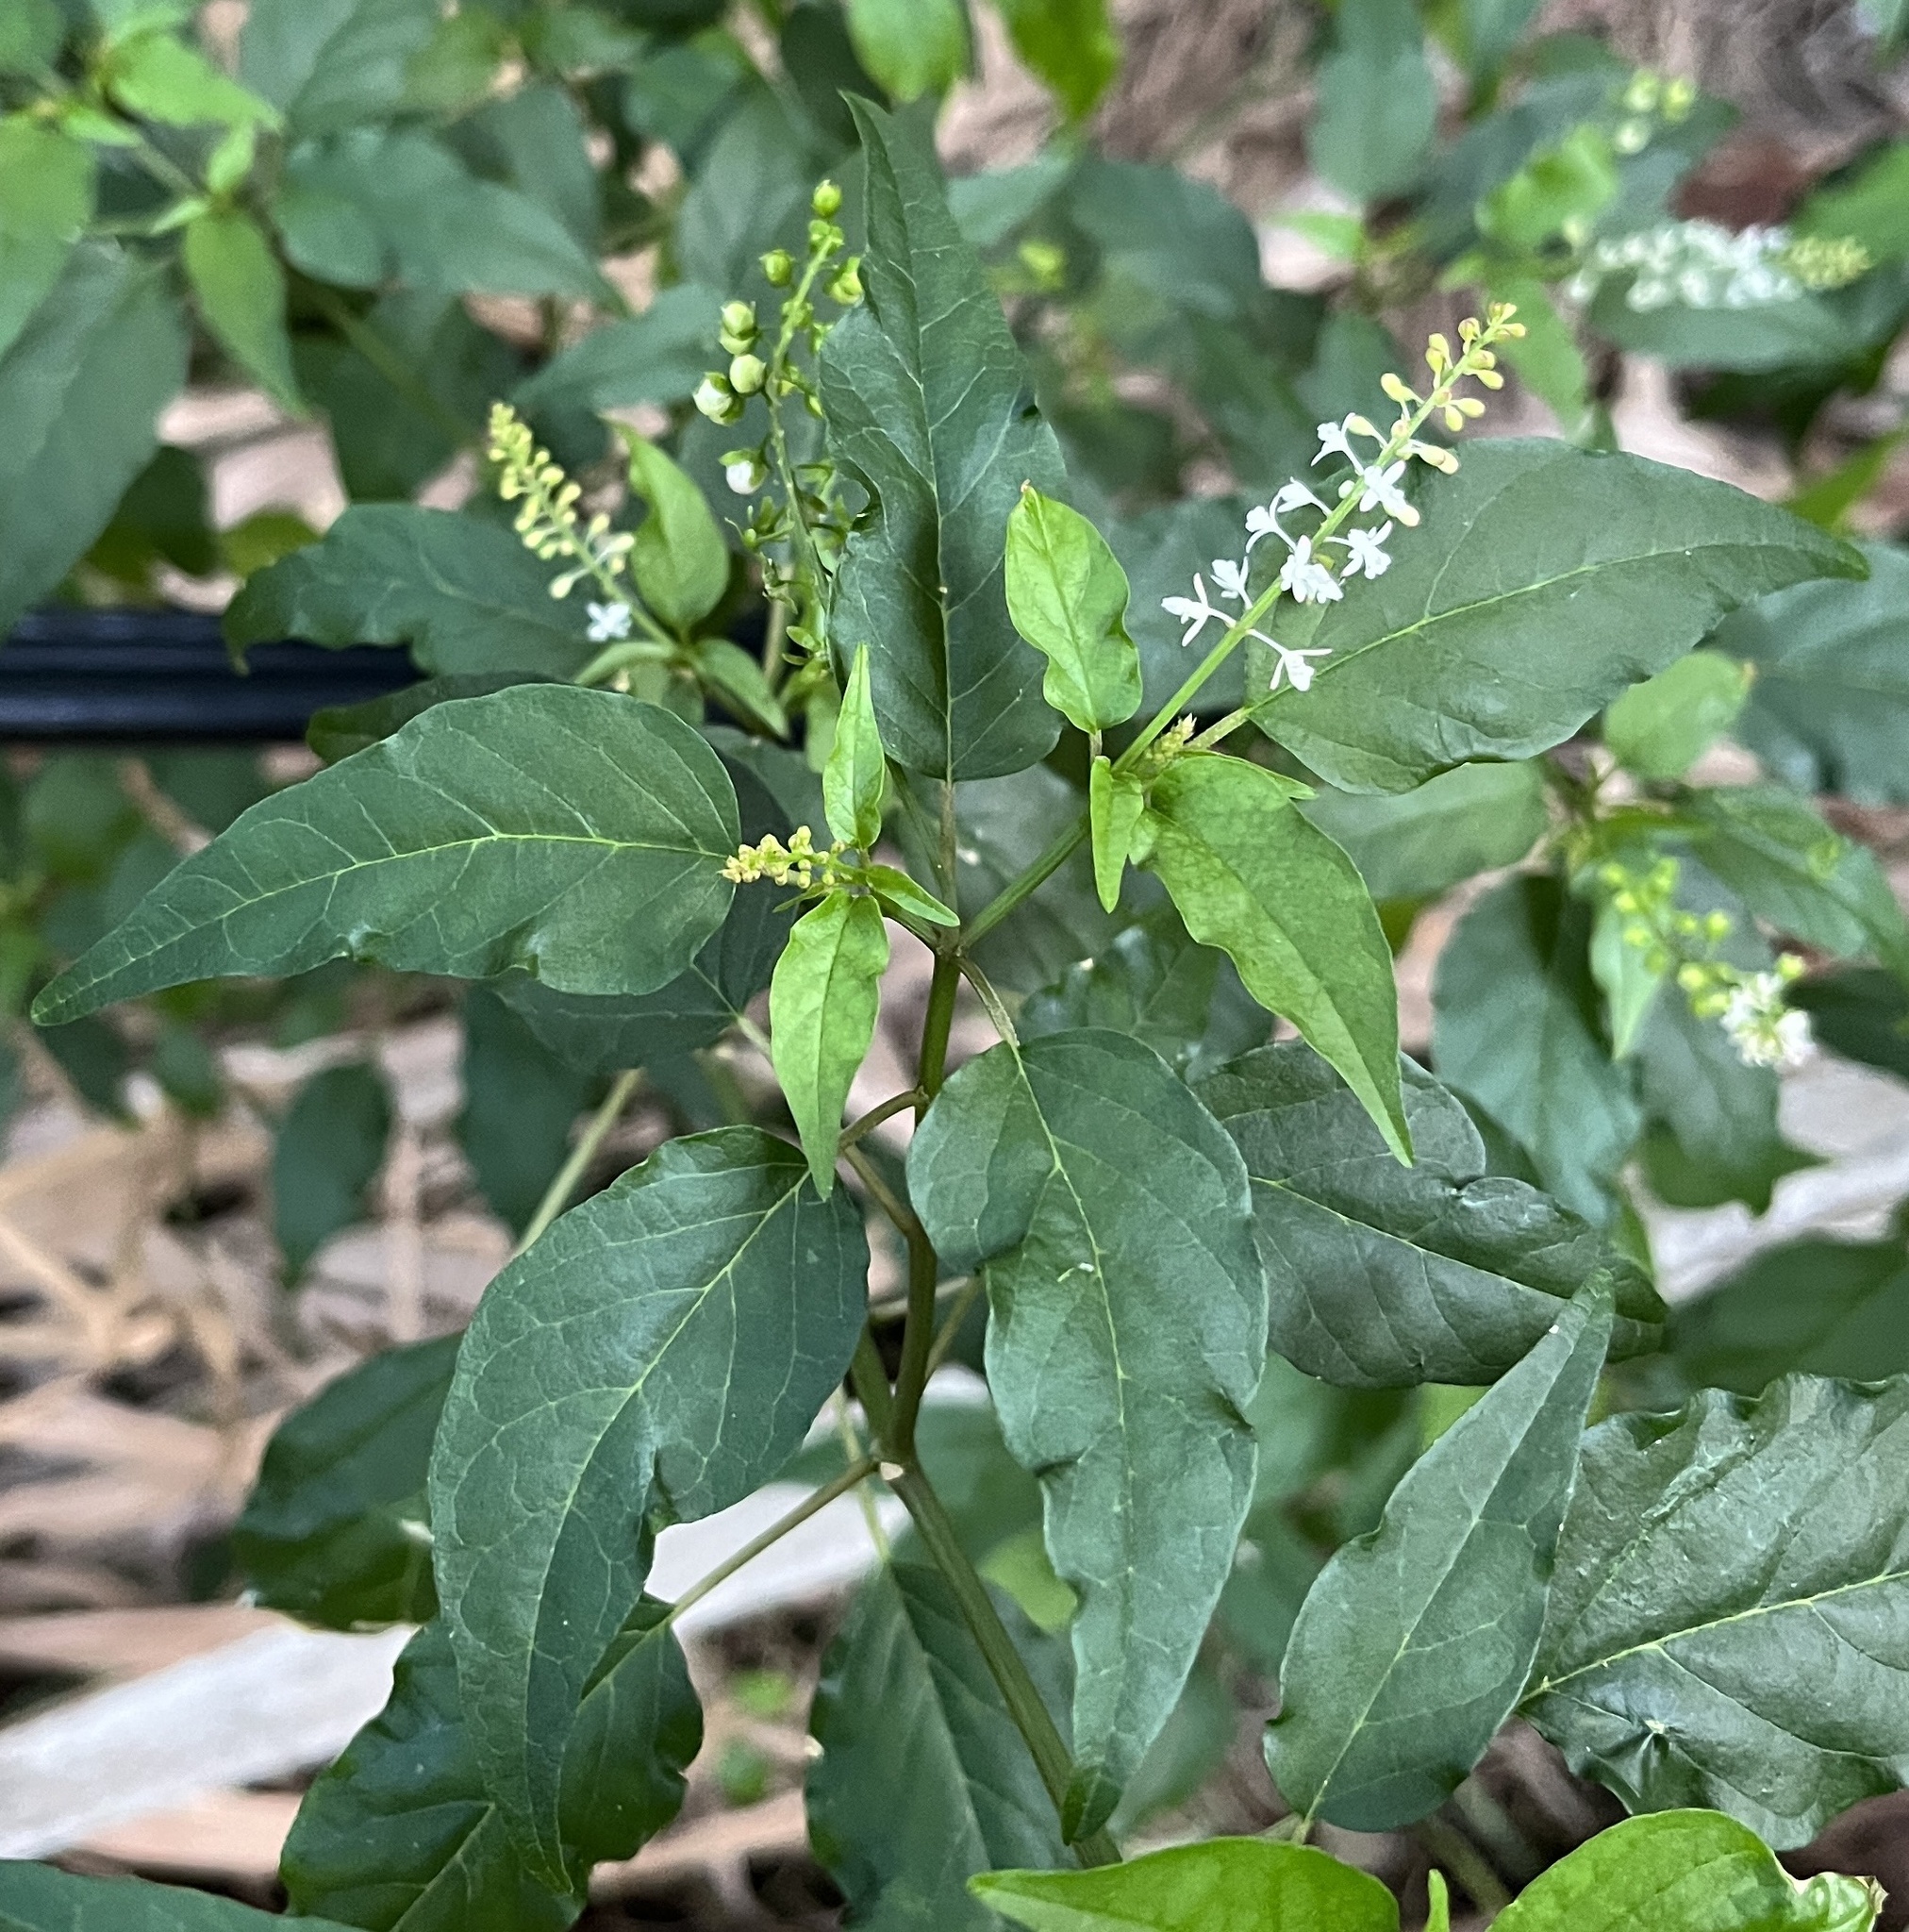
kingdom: Plantae
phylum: Tracheophyta
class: Magnoliopsida
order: Caryophyllales
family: Phytolaccaceae
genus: Rivina
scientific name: Rivina humilis
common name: Rougeplant
